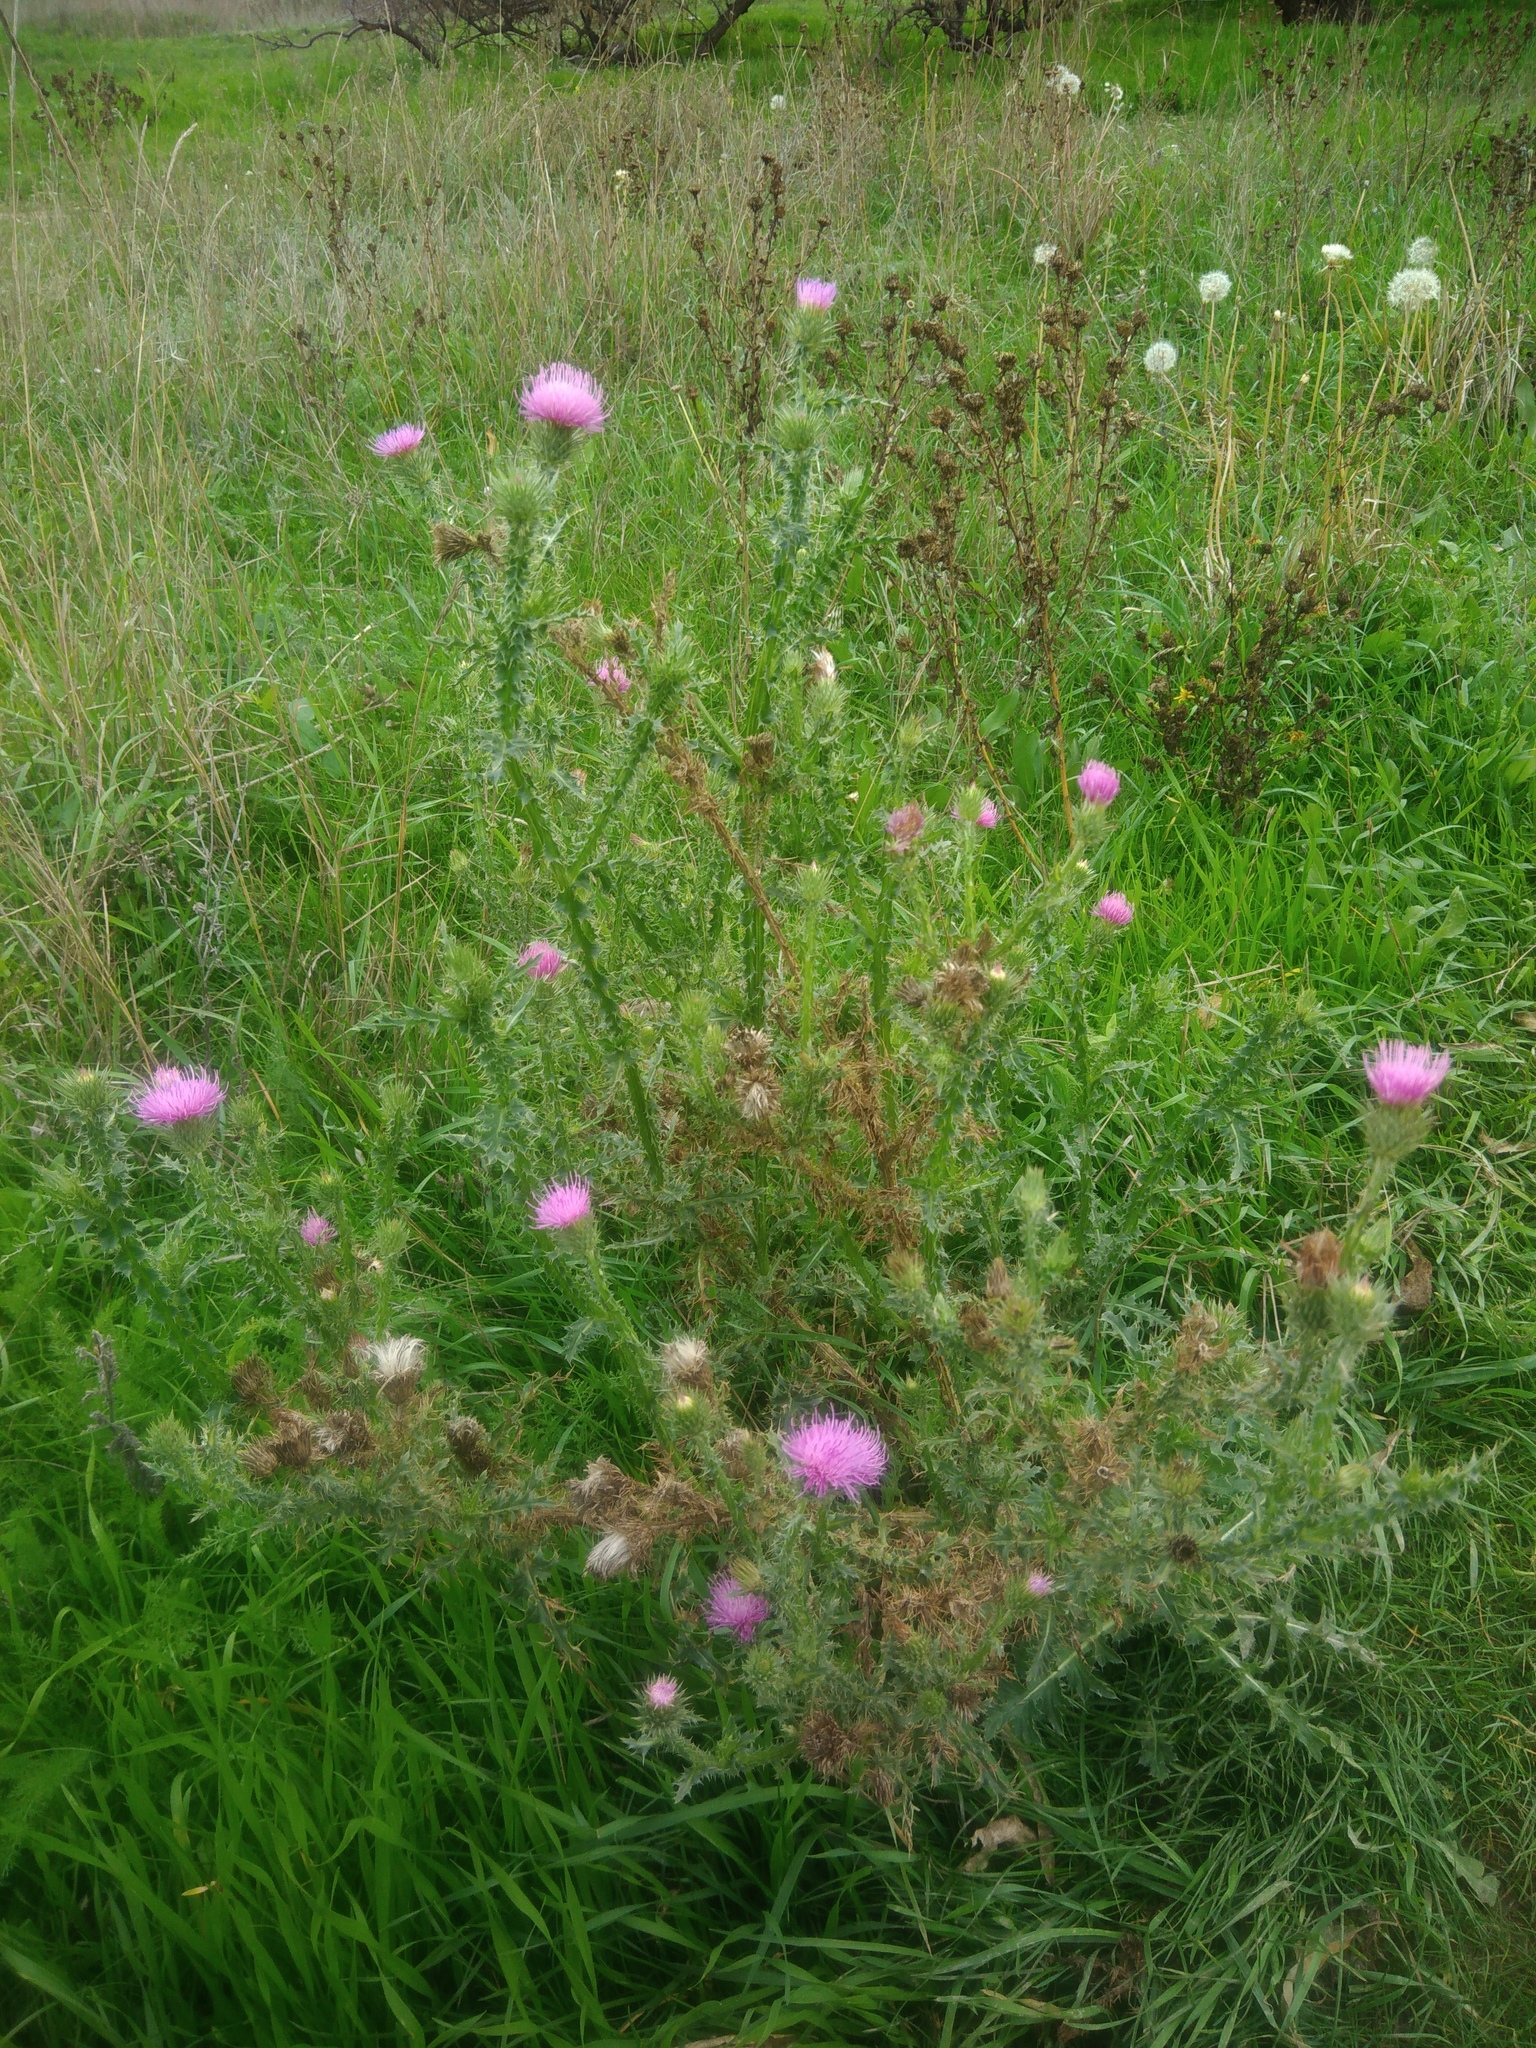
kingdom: Plantae
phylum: Tracheophyta
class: Magnoliopsida
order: Asterales
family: Asteraceae
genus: Carduus
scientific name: Carduus acanthoides
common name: Plumeless thistle
